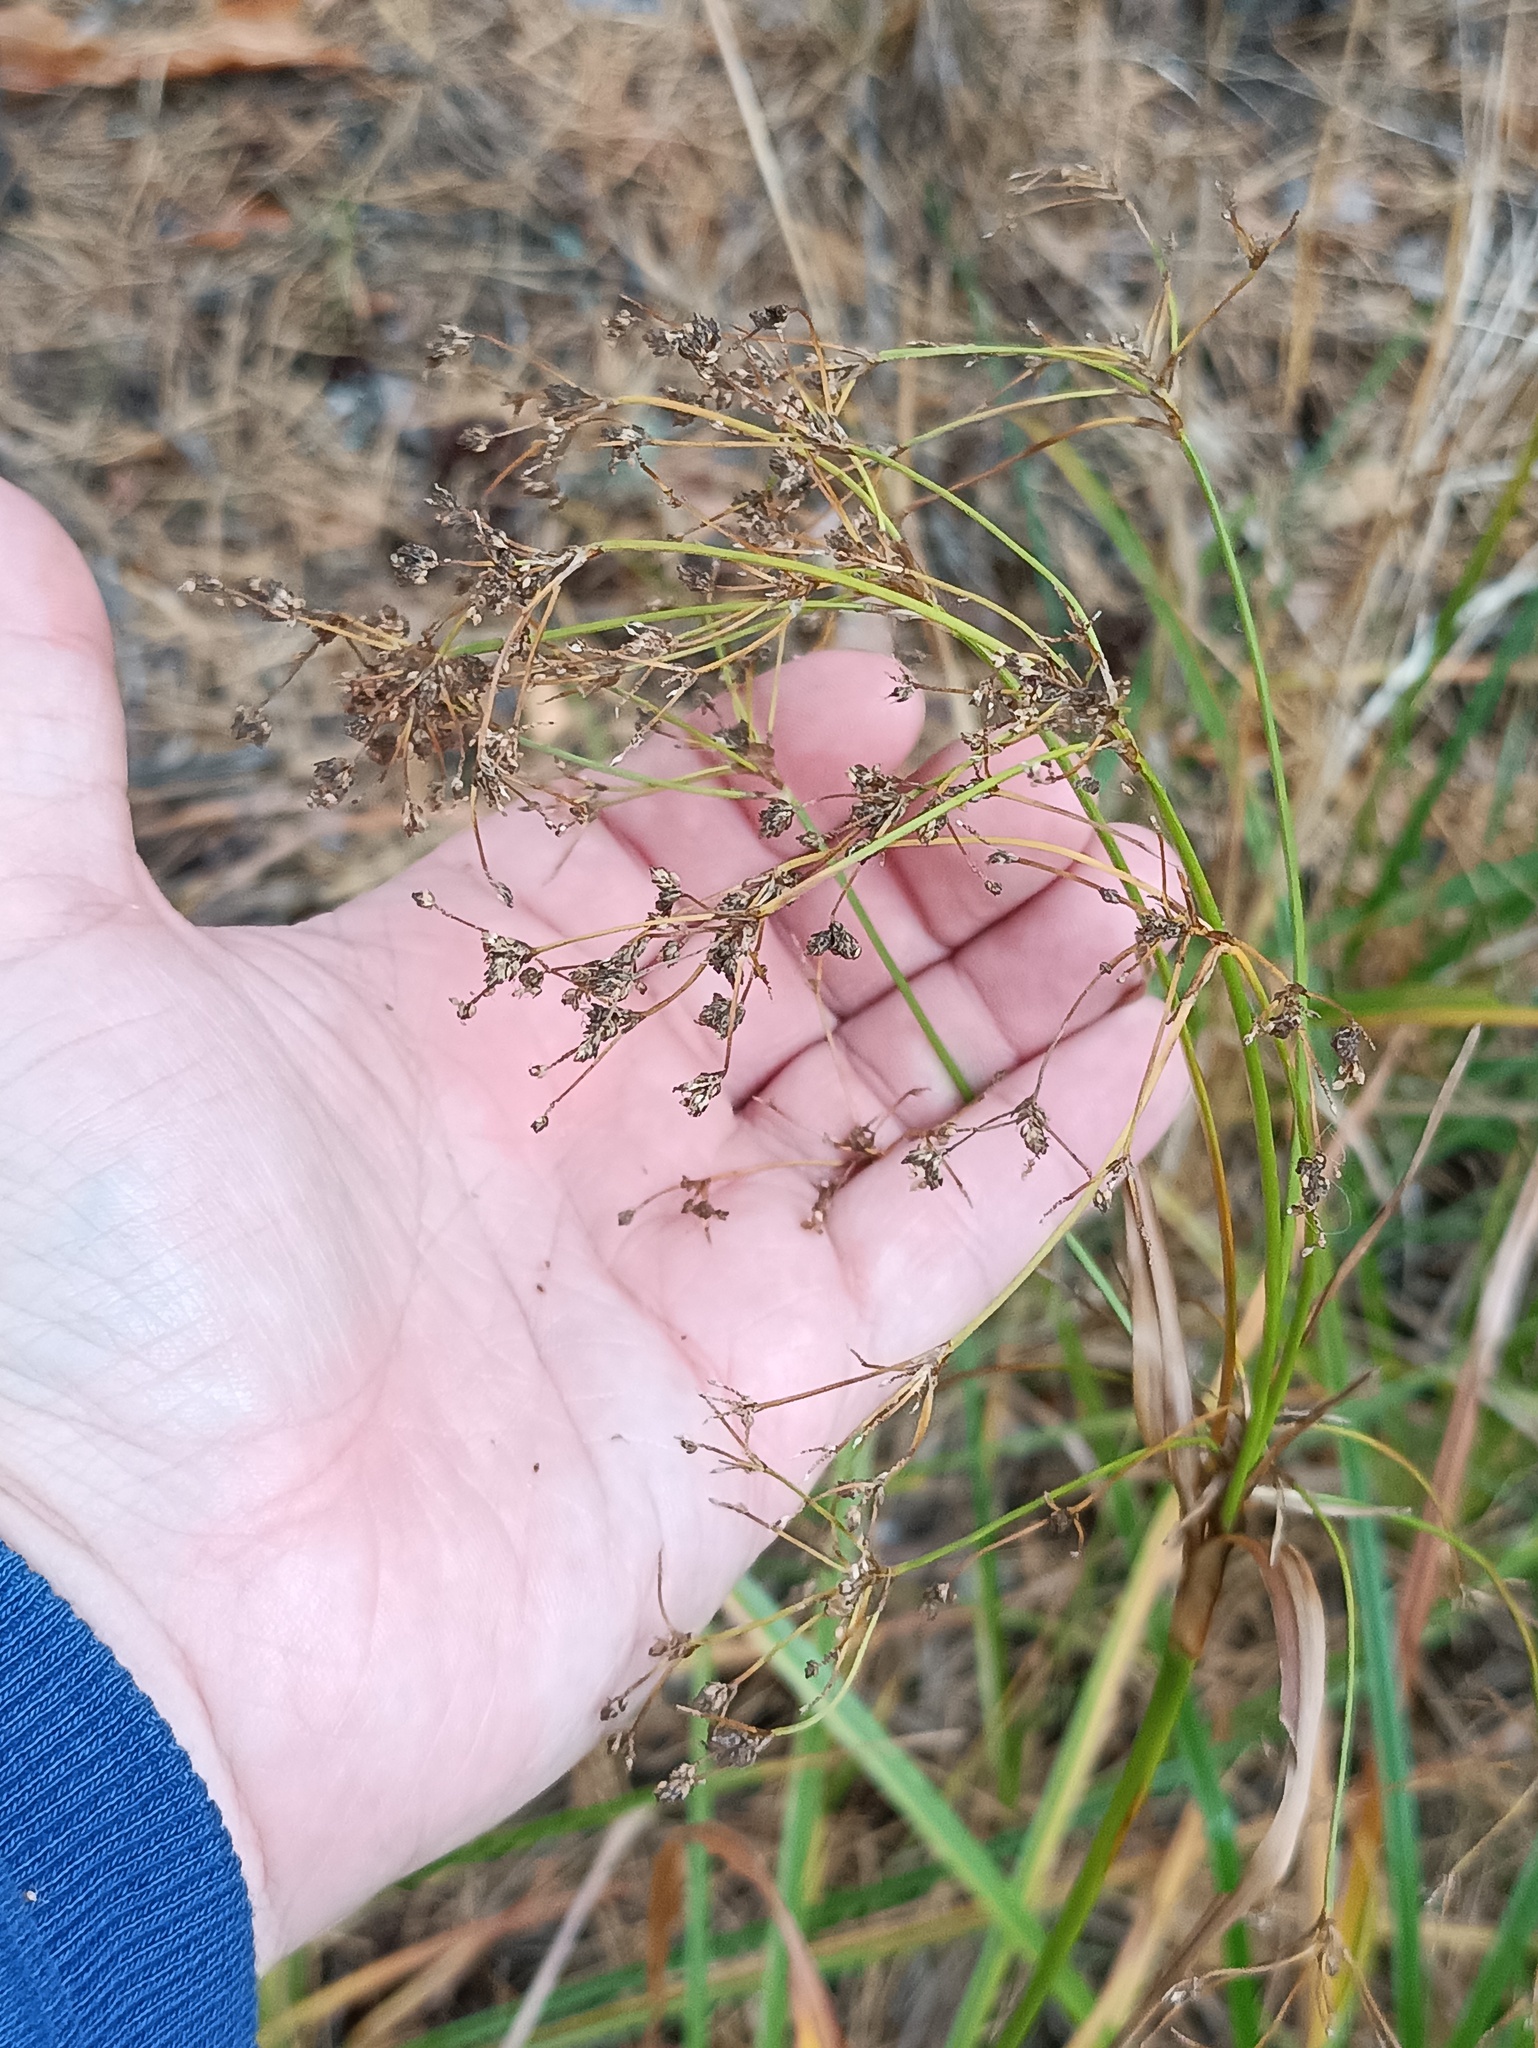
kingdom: Plantae
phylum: Tracheophyta
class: Liliopsida
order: Poales
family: Cyperaceae
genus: Scirpus
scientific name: Scirpus sylvaticus
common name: Wood club-rush
